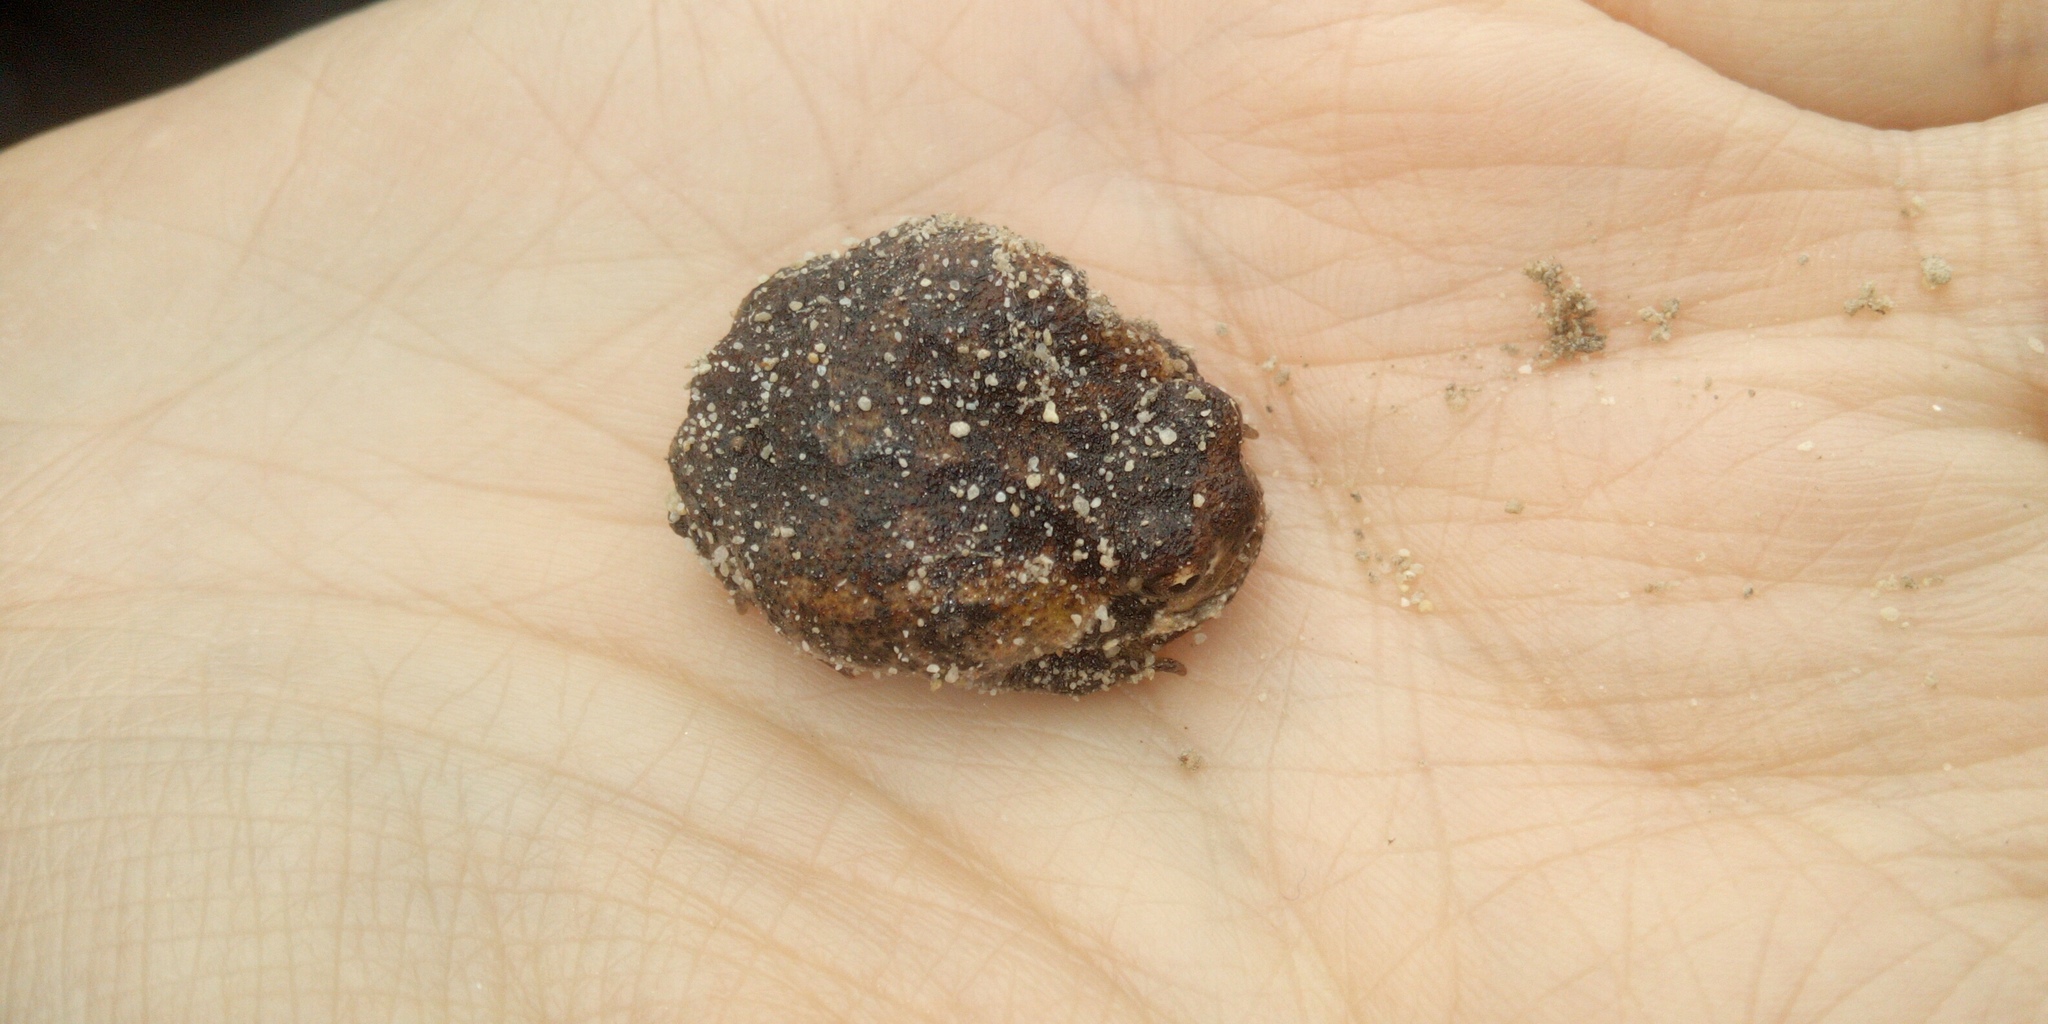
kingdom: Animalia
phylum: Chordata
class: Amphibia
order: Anura
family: Brevicipitidae
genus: Breviceps
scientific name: Breviceps montanus
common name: Mountain rain frog
